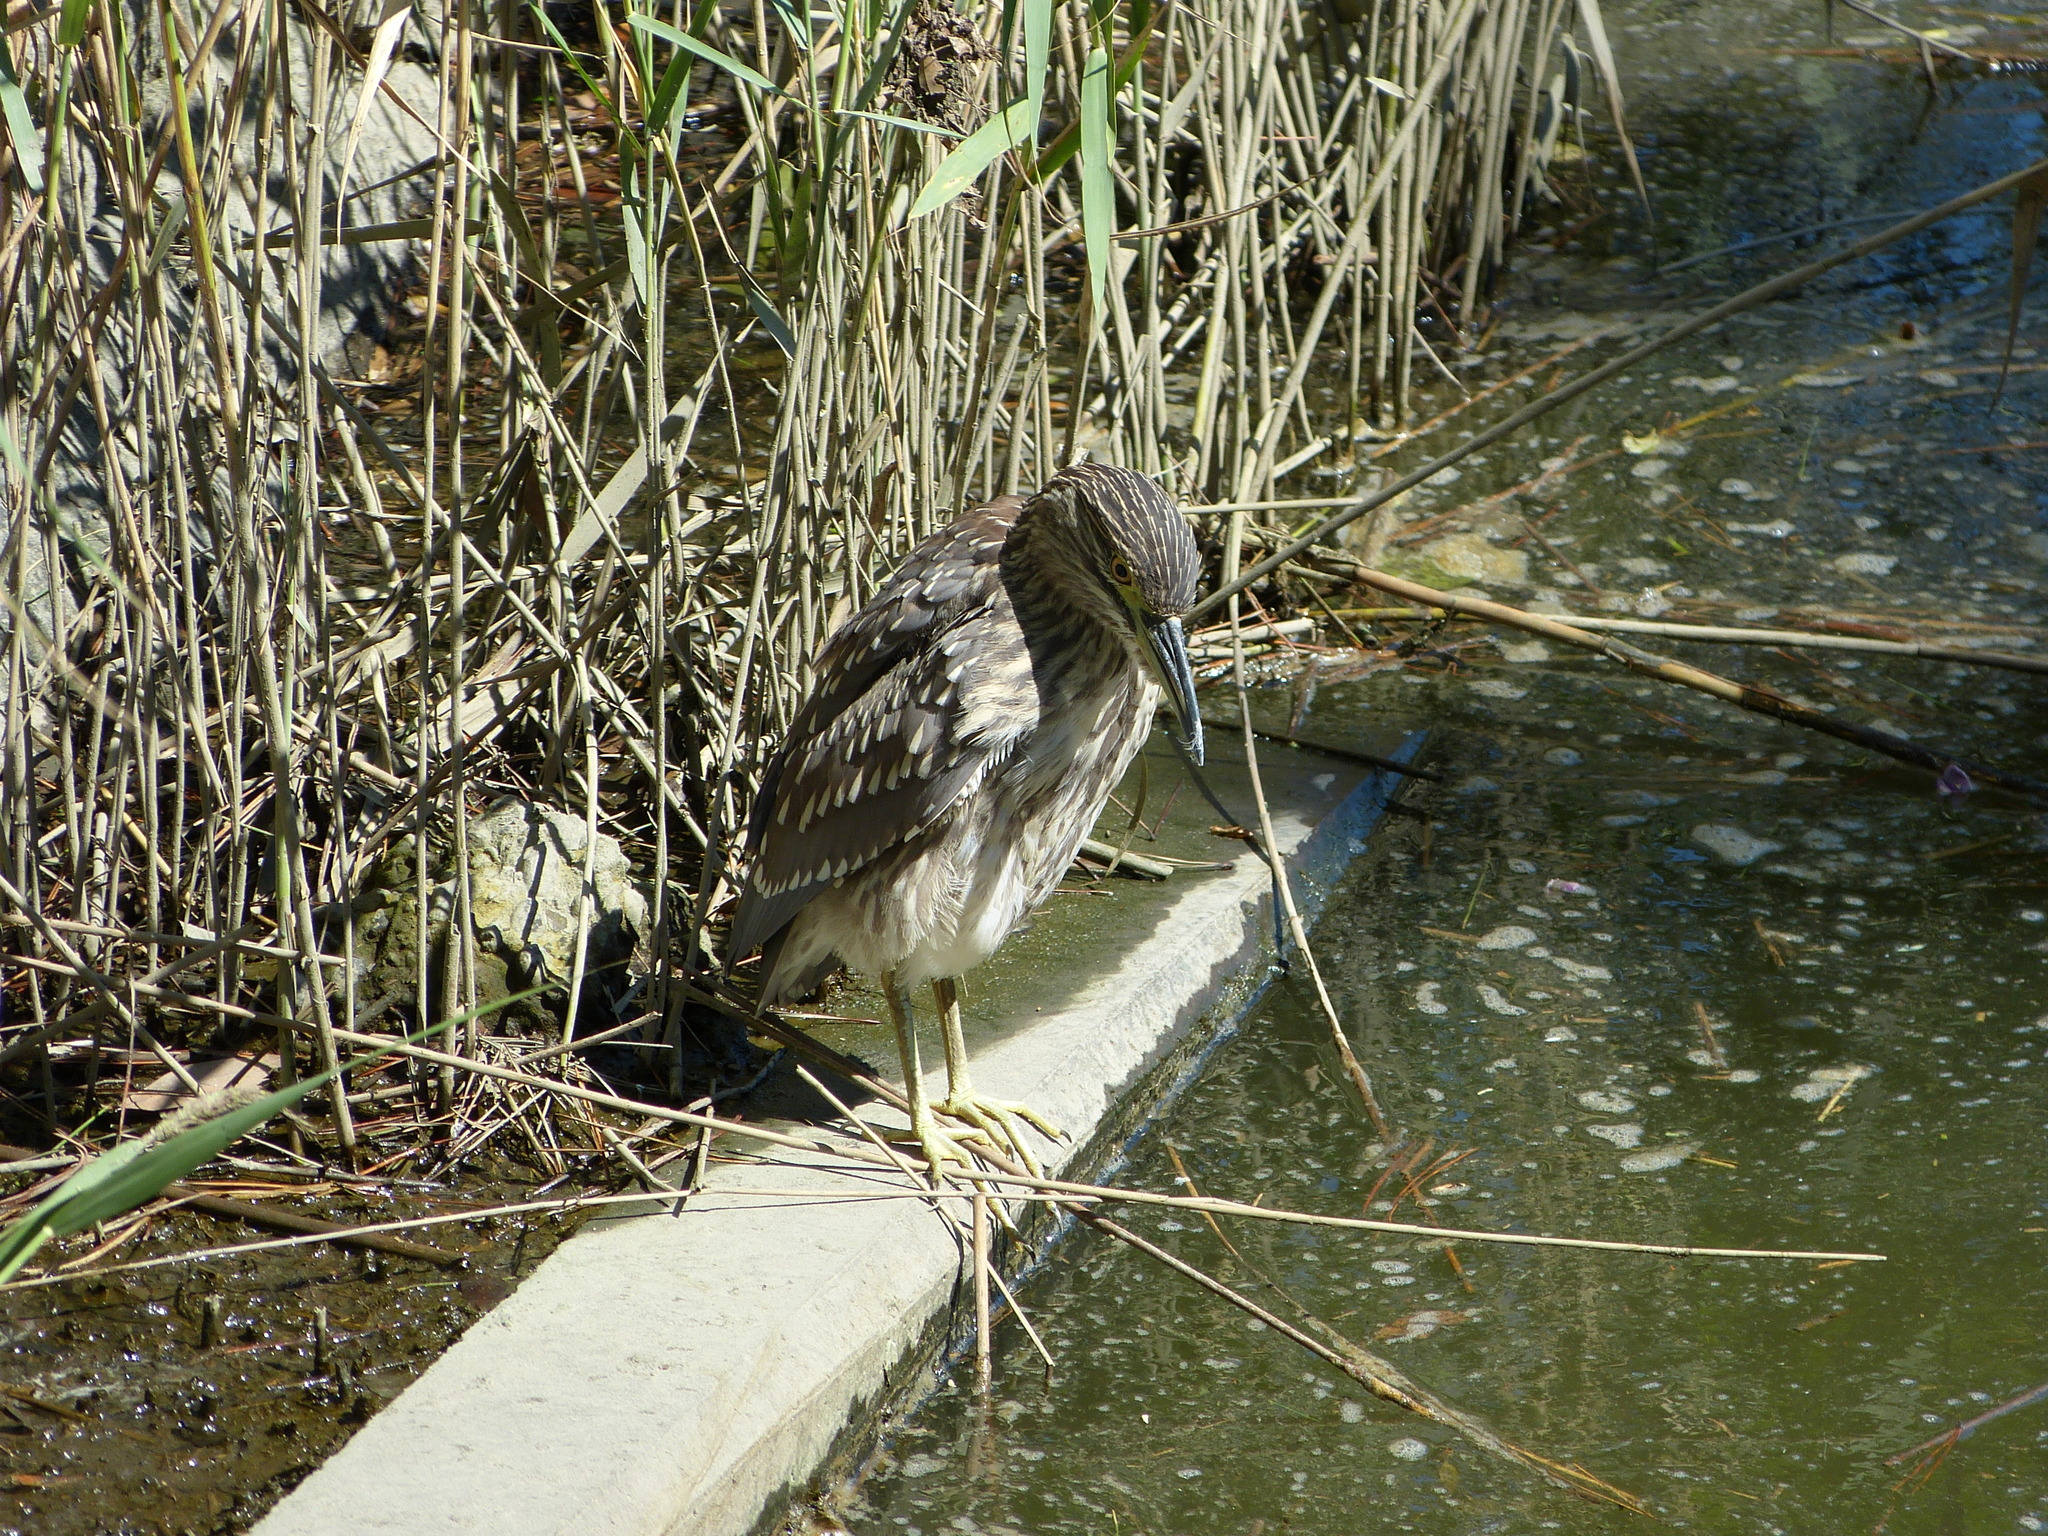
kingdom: Animalia
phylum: Chordata
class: Aves
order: Pelecaniformes
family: Ardeidae
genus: Nycticorax
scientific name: Nycticorax nycticorax
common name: Black-crowned night heron
